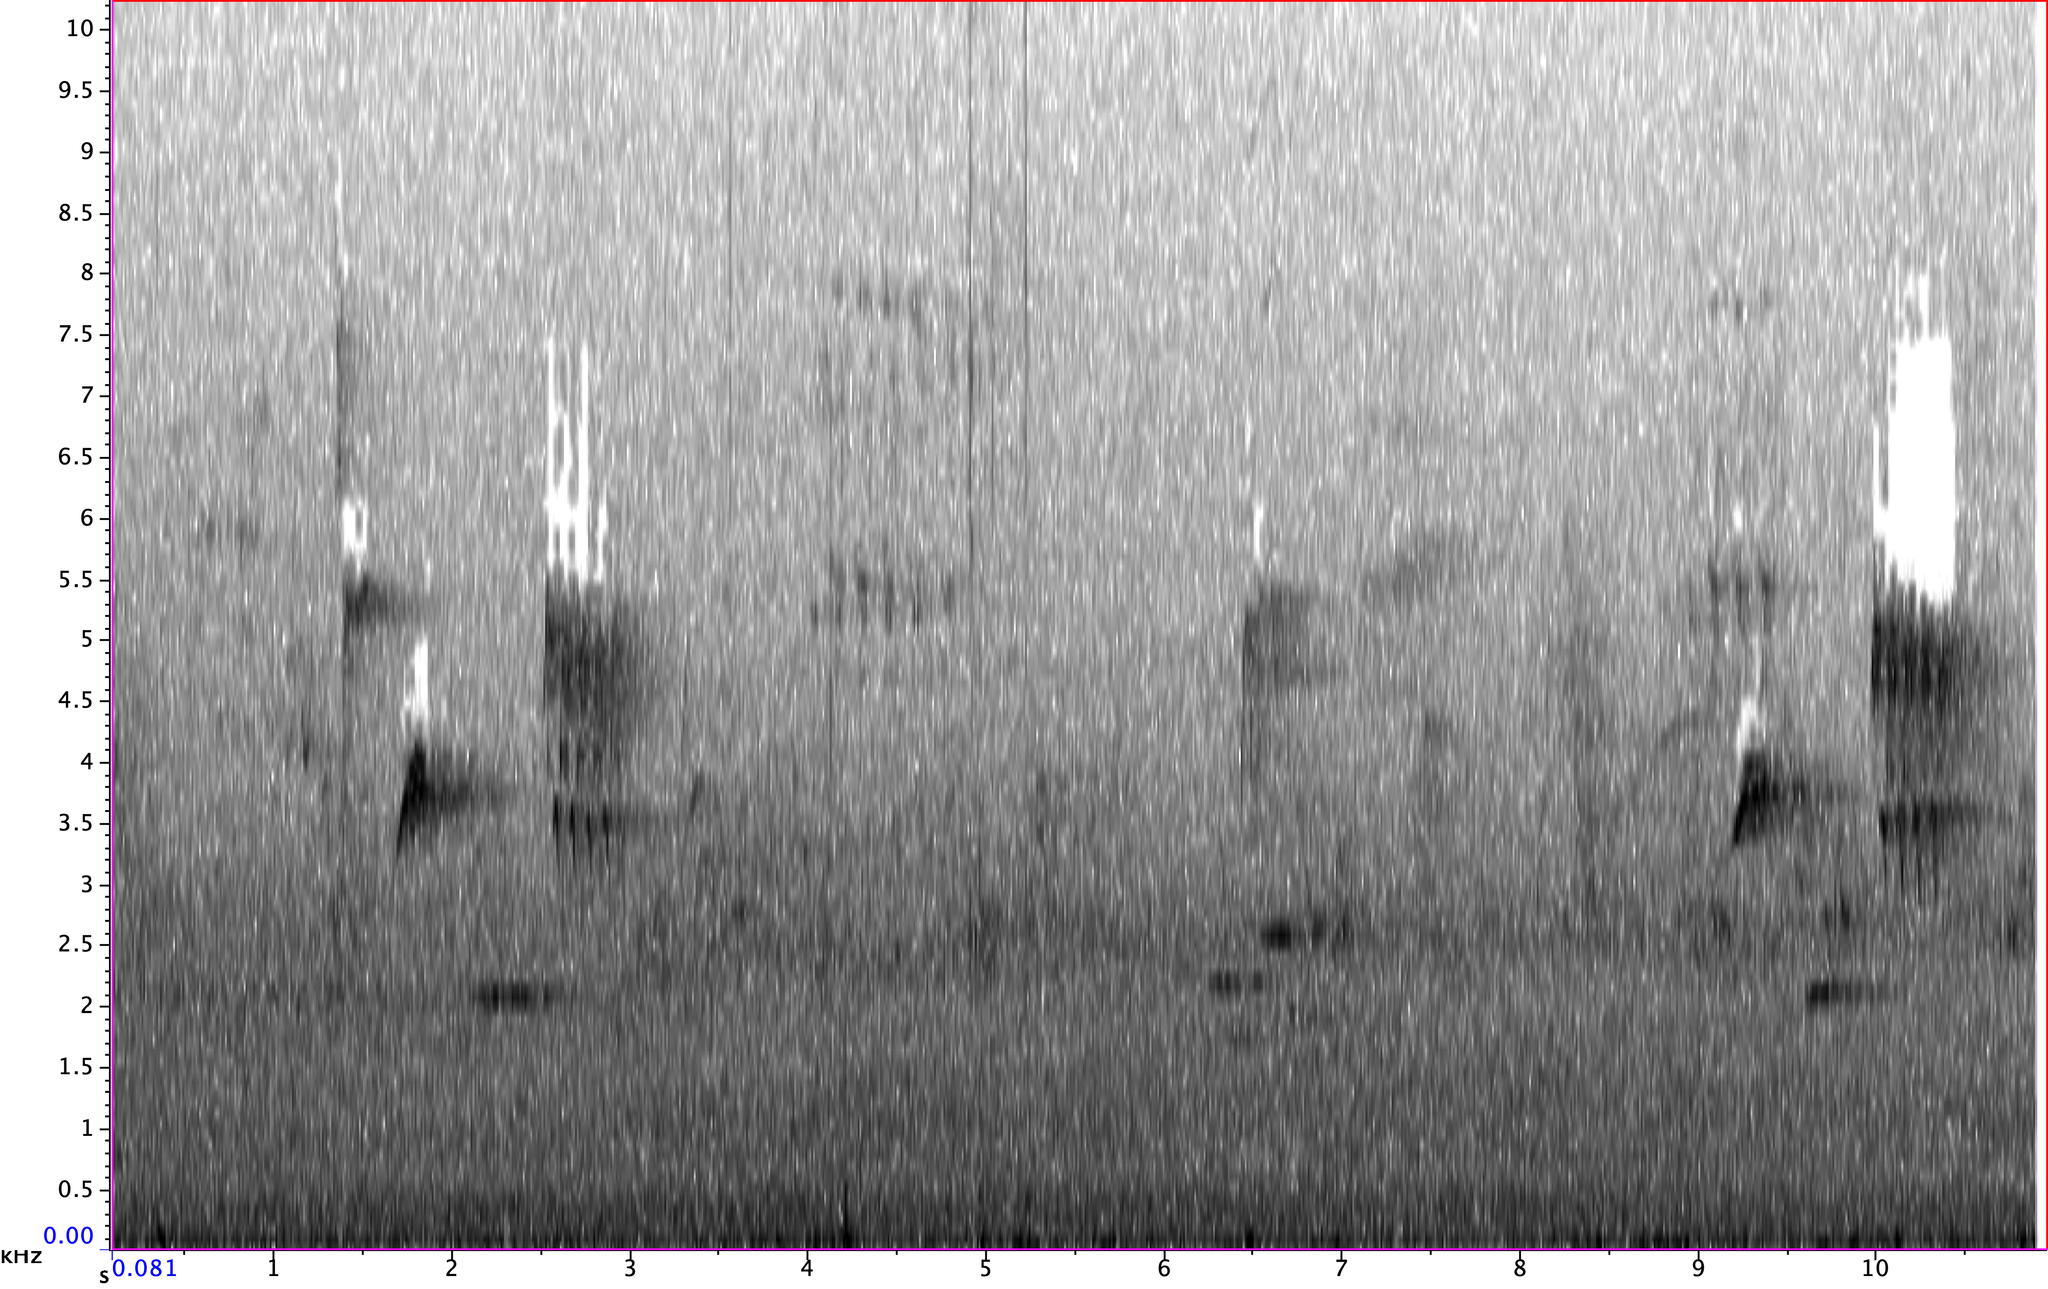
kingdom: Animalia
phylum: Chordata
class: Aves
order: Passeriformes
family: Passerellidae
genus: Pipilo
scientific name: Pipilo erythrophthalmus
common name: Eastern towhee
